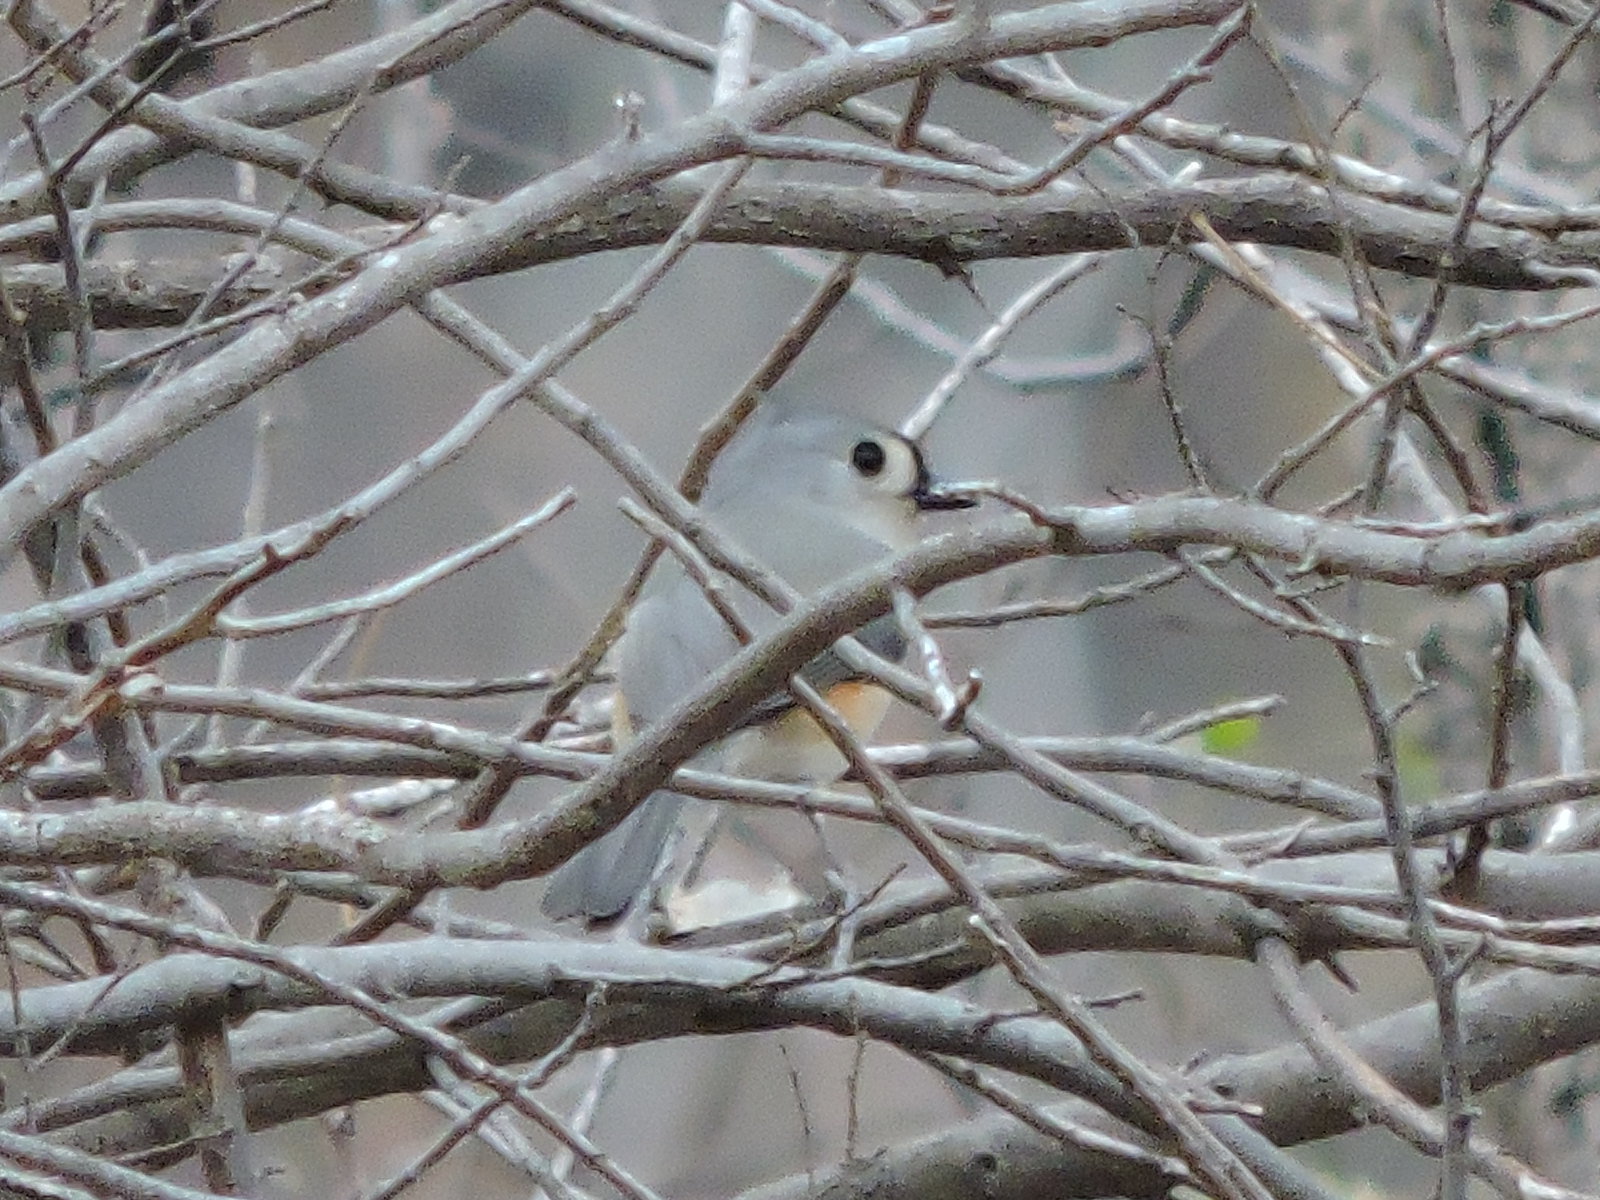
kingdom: Animalia
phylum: Chordata
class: Aves
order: Passeriformes
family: Paridae
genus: Baeolophus
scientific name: Baeolophus bicolor
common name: Tufted titmouse
